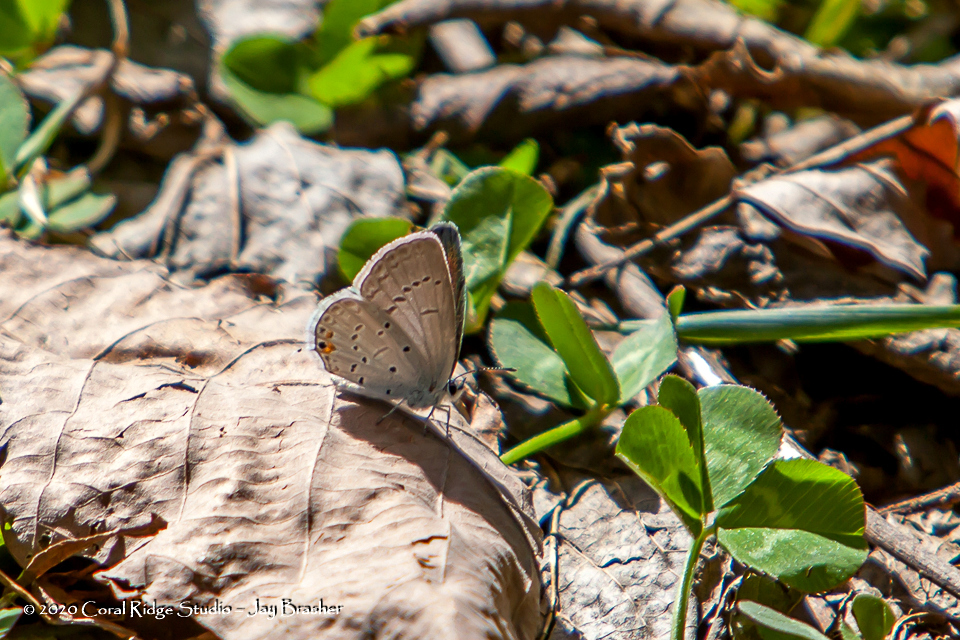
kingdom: Animalia
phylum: Arthropoda
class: Insecta
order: Lepidoptera
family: Lycaenidae
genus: Elkalyce
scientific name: Elkalyce comyntas
